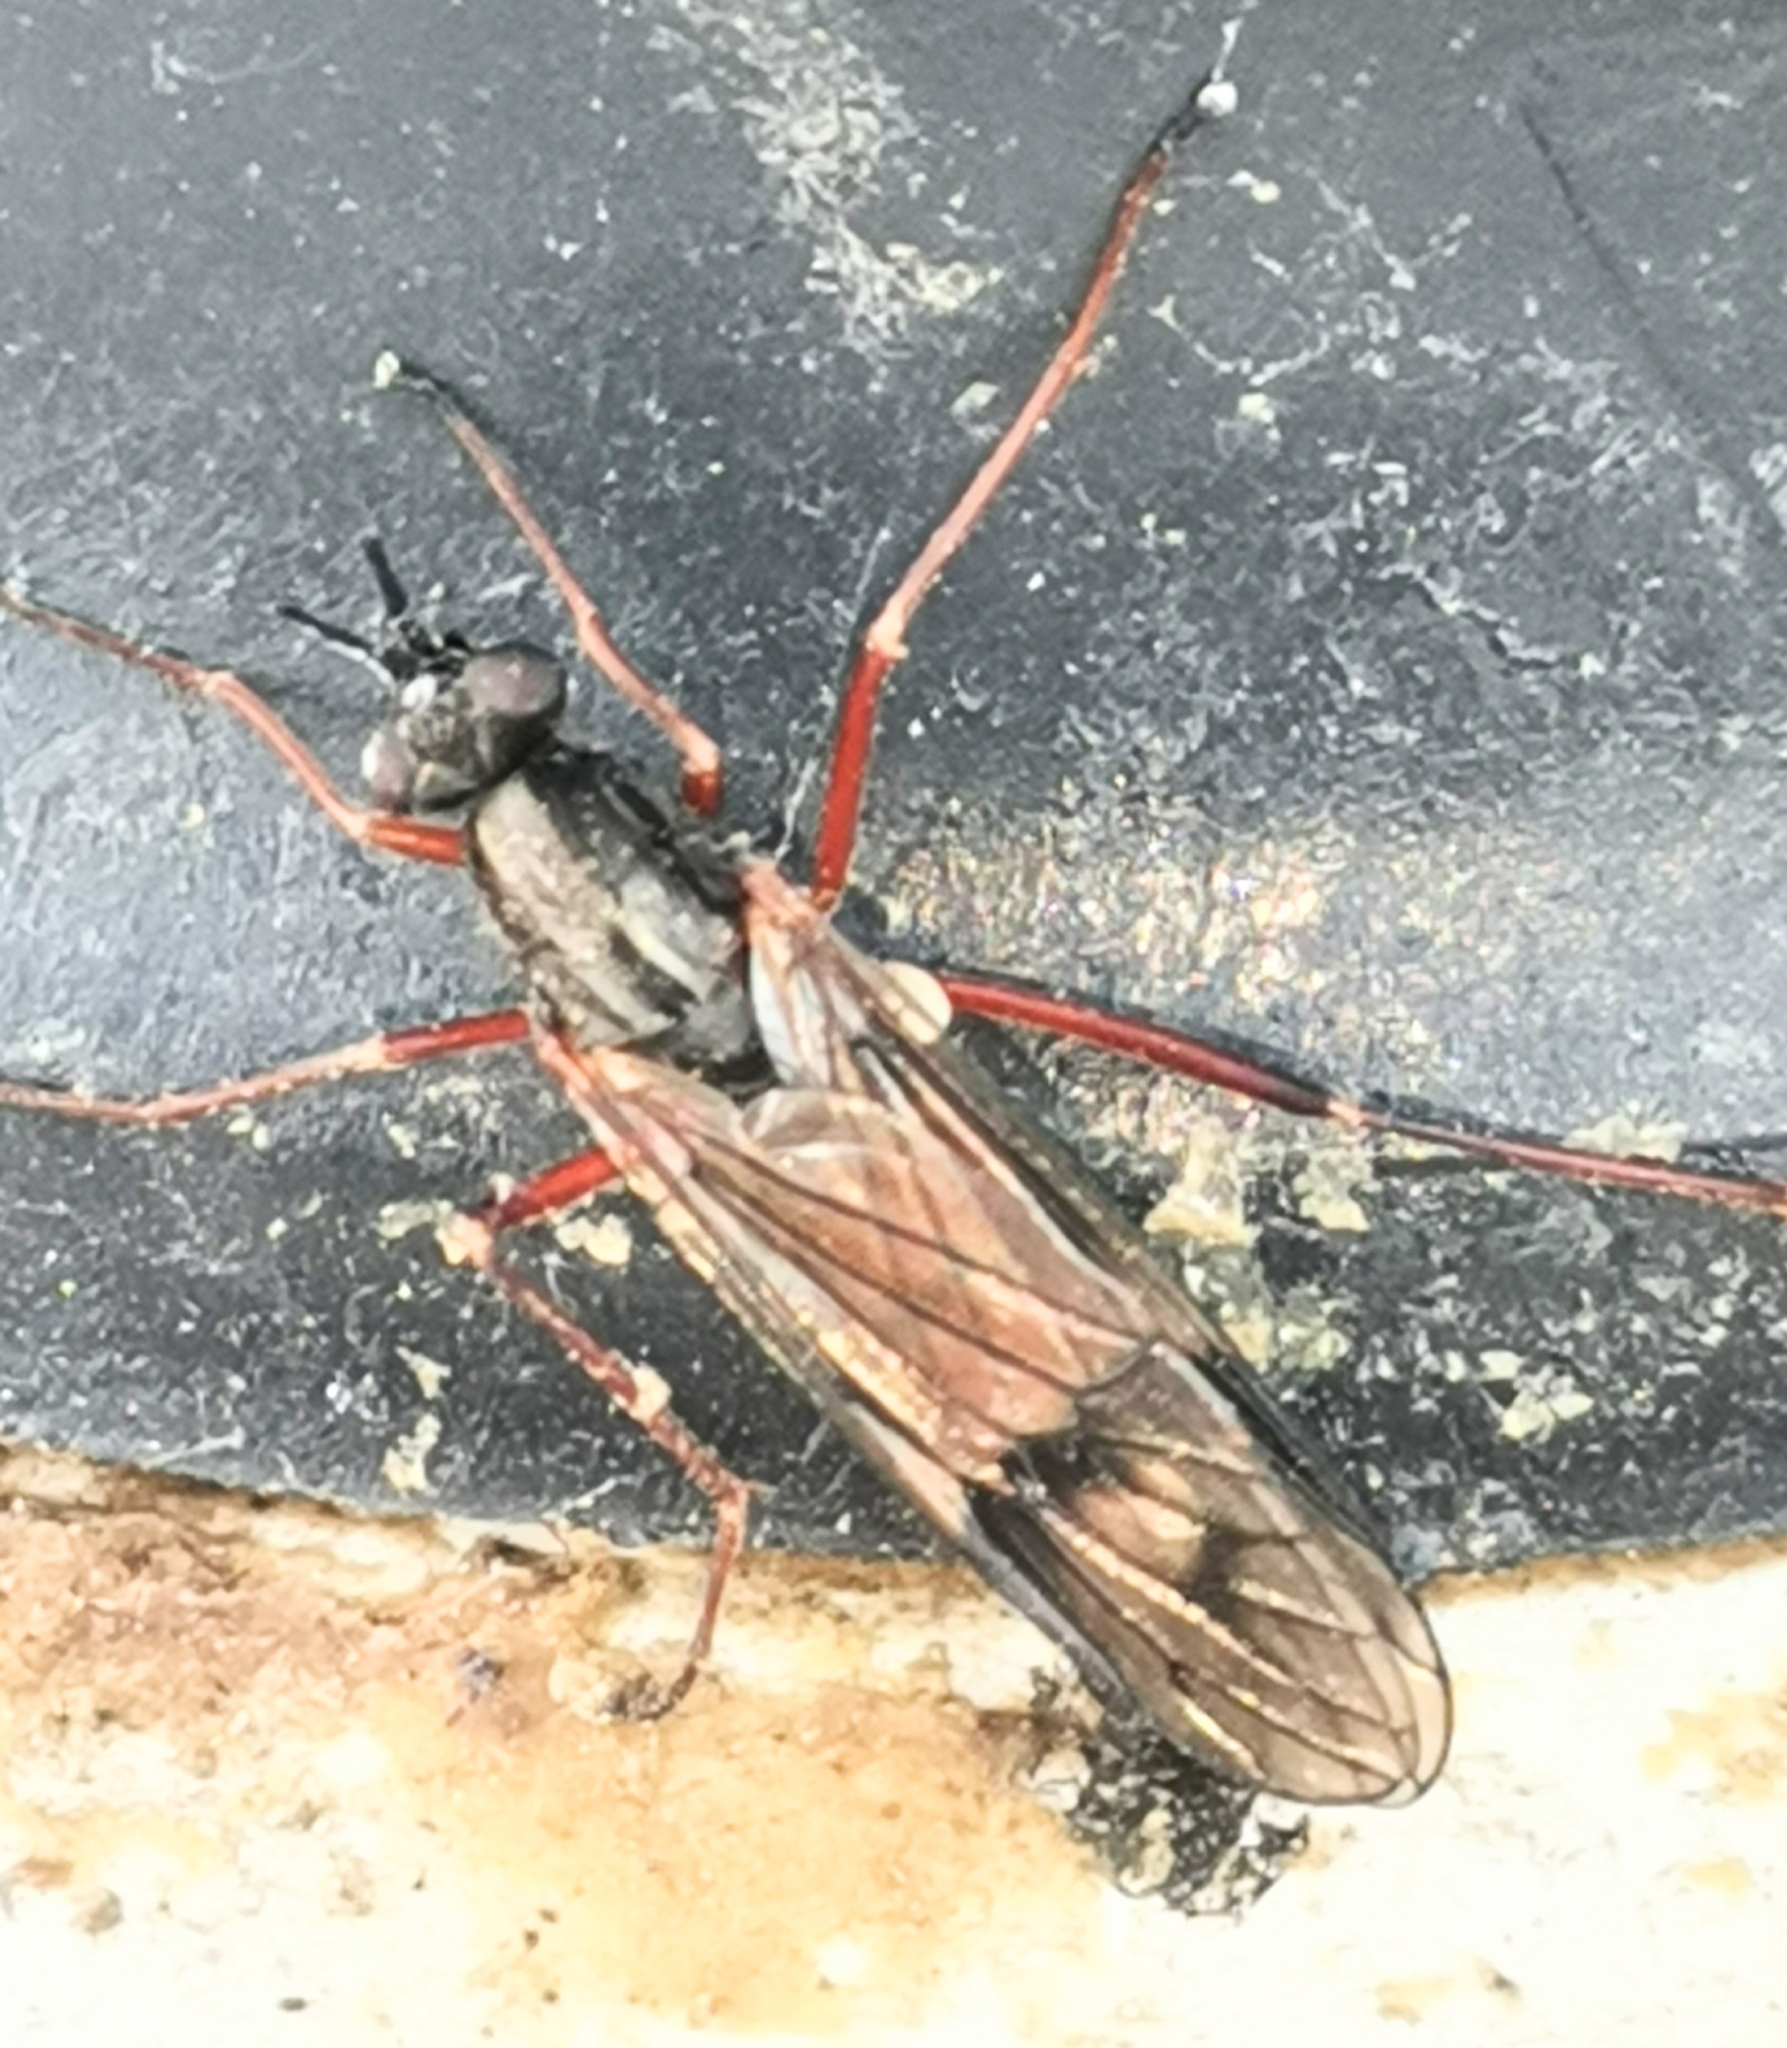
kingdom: Animalia
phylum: Arthropoda
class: Insecta
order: Diptera
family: Xylophagidae
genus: Xylophagus
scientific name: Xylophagus cinctus
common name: Red-belted awl-fly
